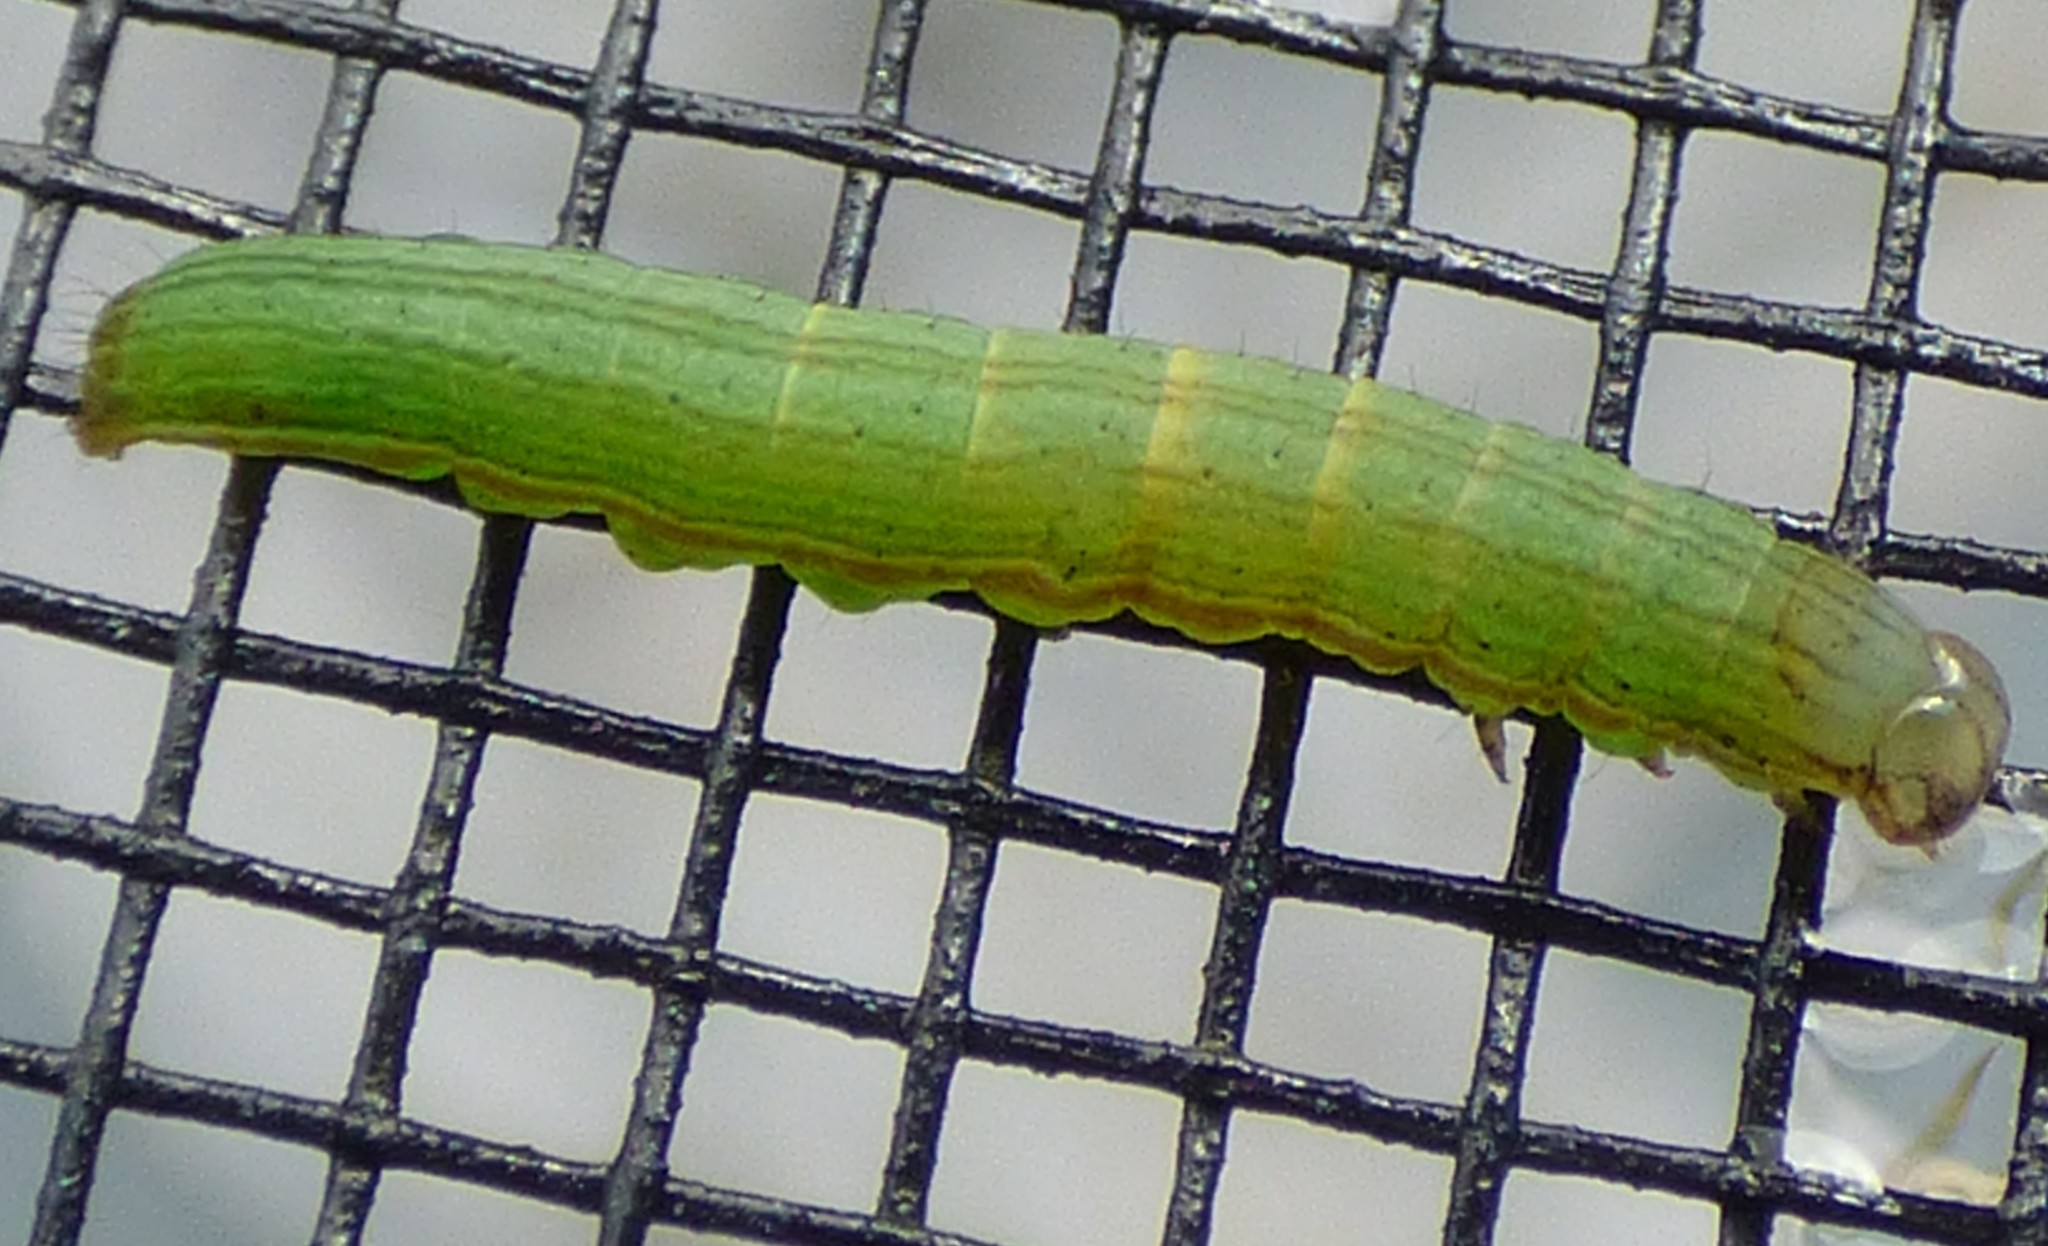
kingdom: Animalia
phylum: Arthropoda
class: Insecta
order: Lepidoptera
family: Noctuidae
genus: Anicla
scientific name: Anicla infecta
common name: Green cutworm
